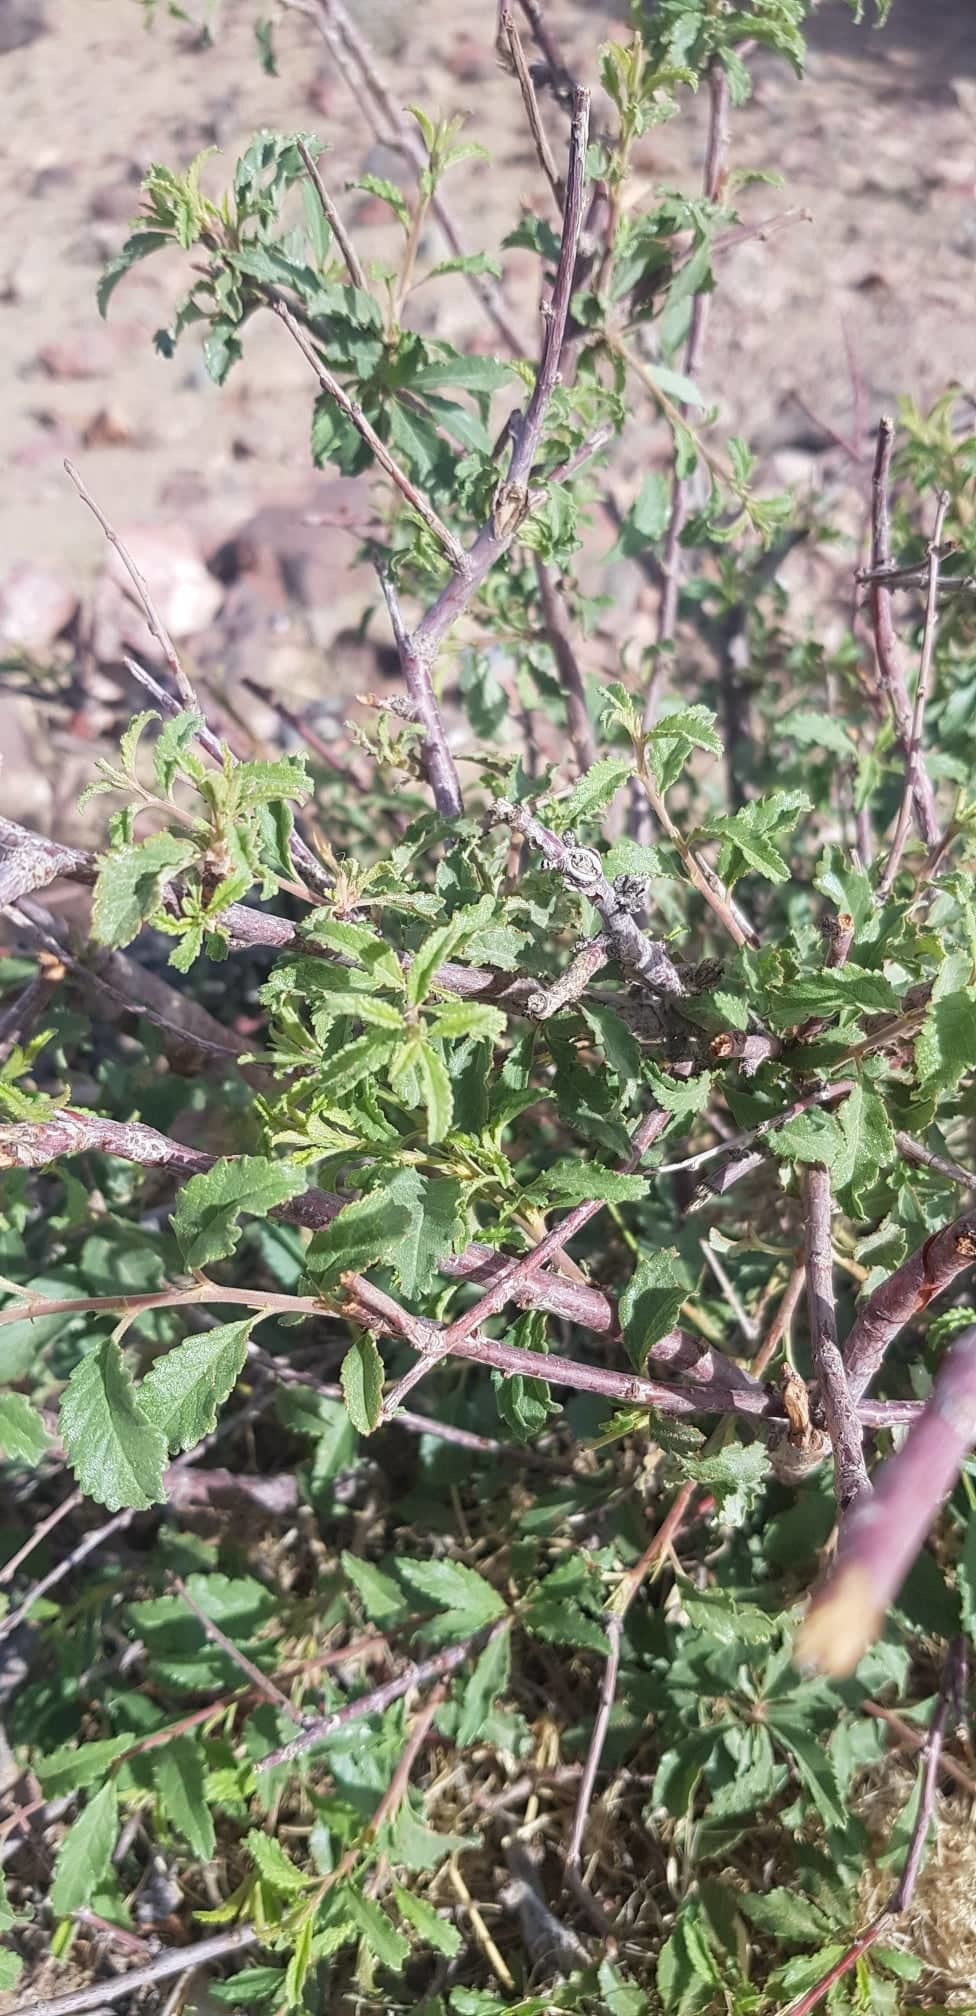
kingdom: Plantae
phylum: Tracheophyta
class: Magnoliopsida
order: Rosales
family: Rosaceae
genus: Prunus
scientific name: Prunus pedunculata
